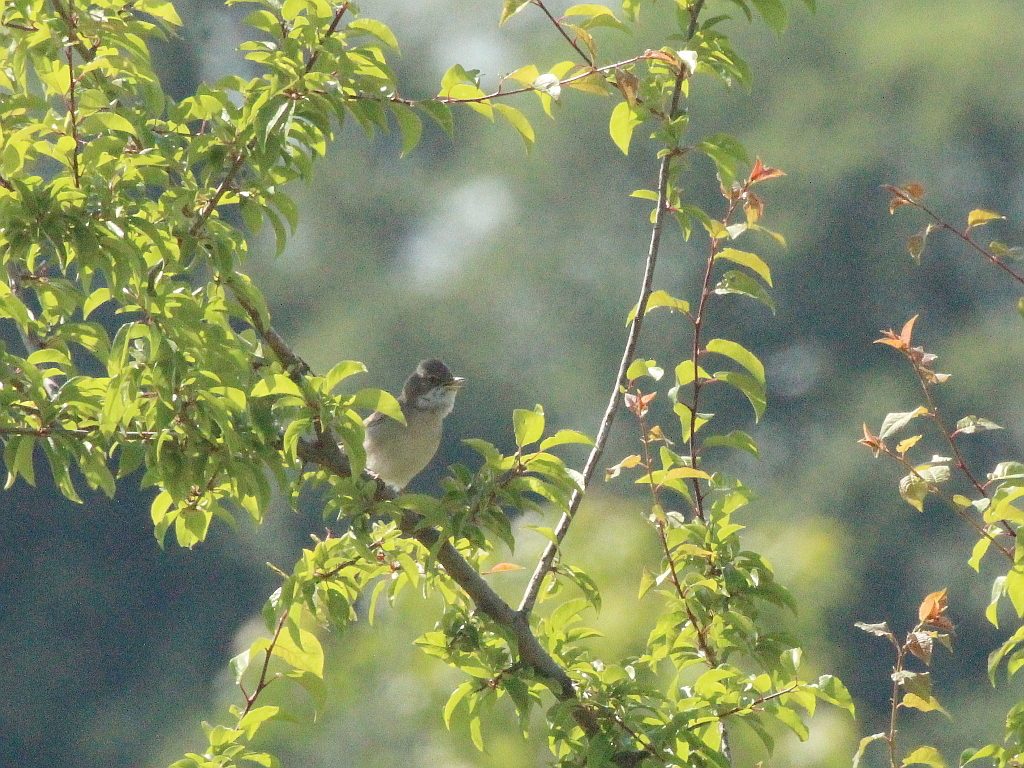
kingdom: Animalia
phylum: Chordata
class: Aves
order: Passeriformes
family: Sylviidae
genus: Sylvia
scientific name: Sylvia communis
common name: Common whitethroat
